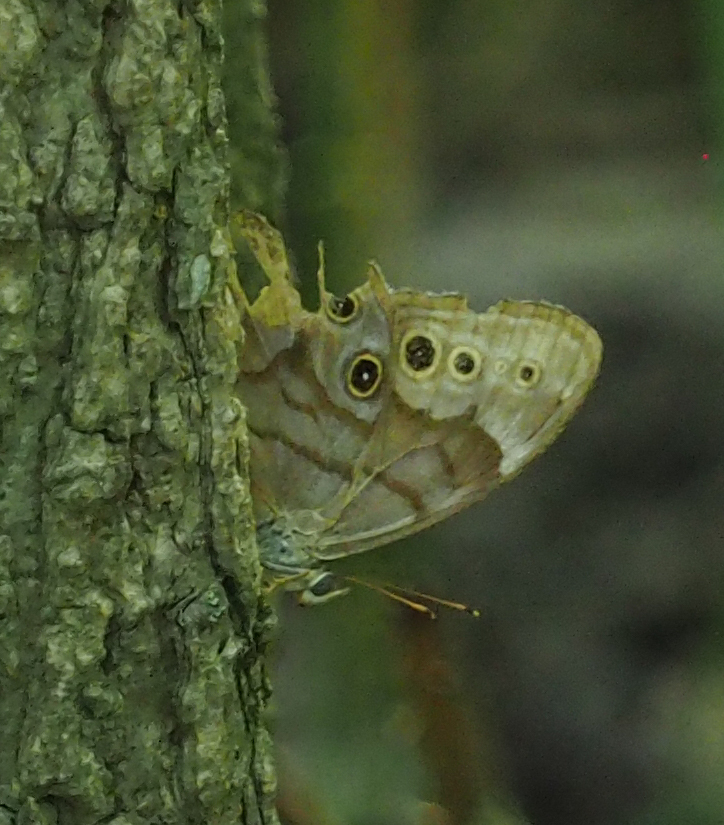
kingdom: Animalia
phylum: Arthropoda
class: Insecta
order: Lepidoptera
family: Nymphalidae
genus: Lethe
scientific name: Lethe anthedon
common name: Northern pearly-eye
